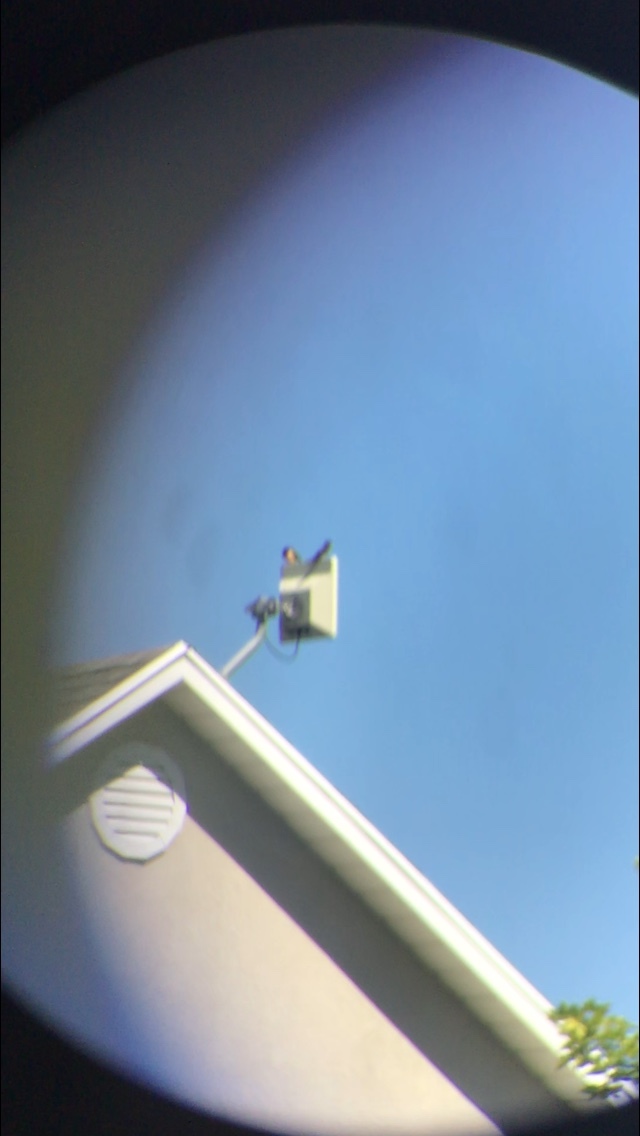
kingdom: Animalia
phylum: Chordata
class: Aves
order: Passeriformes
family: Hirundinidae
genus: Hirundo
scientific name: Hirundo rustica
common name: Barn swallow
